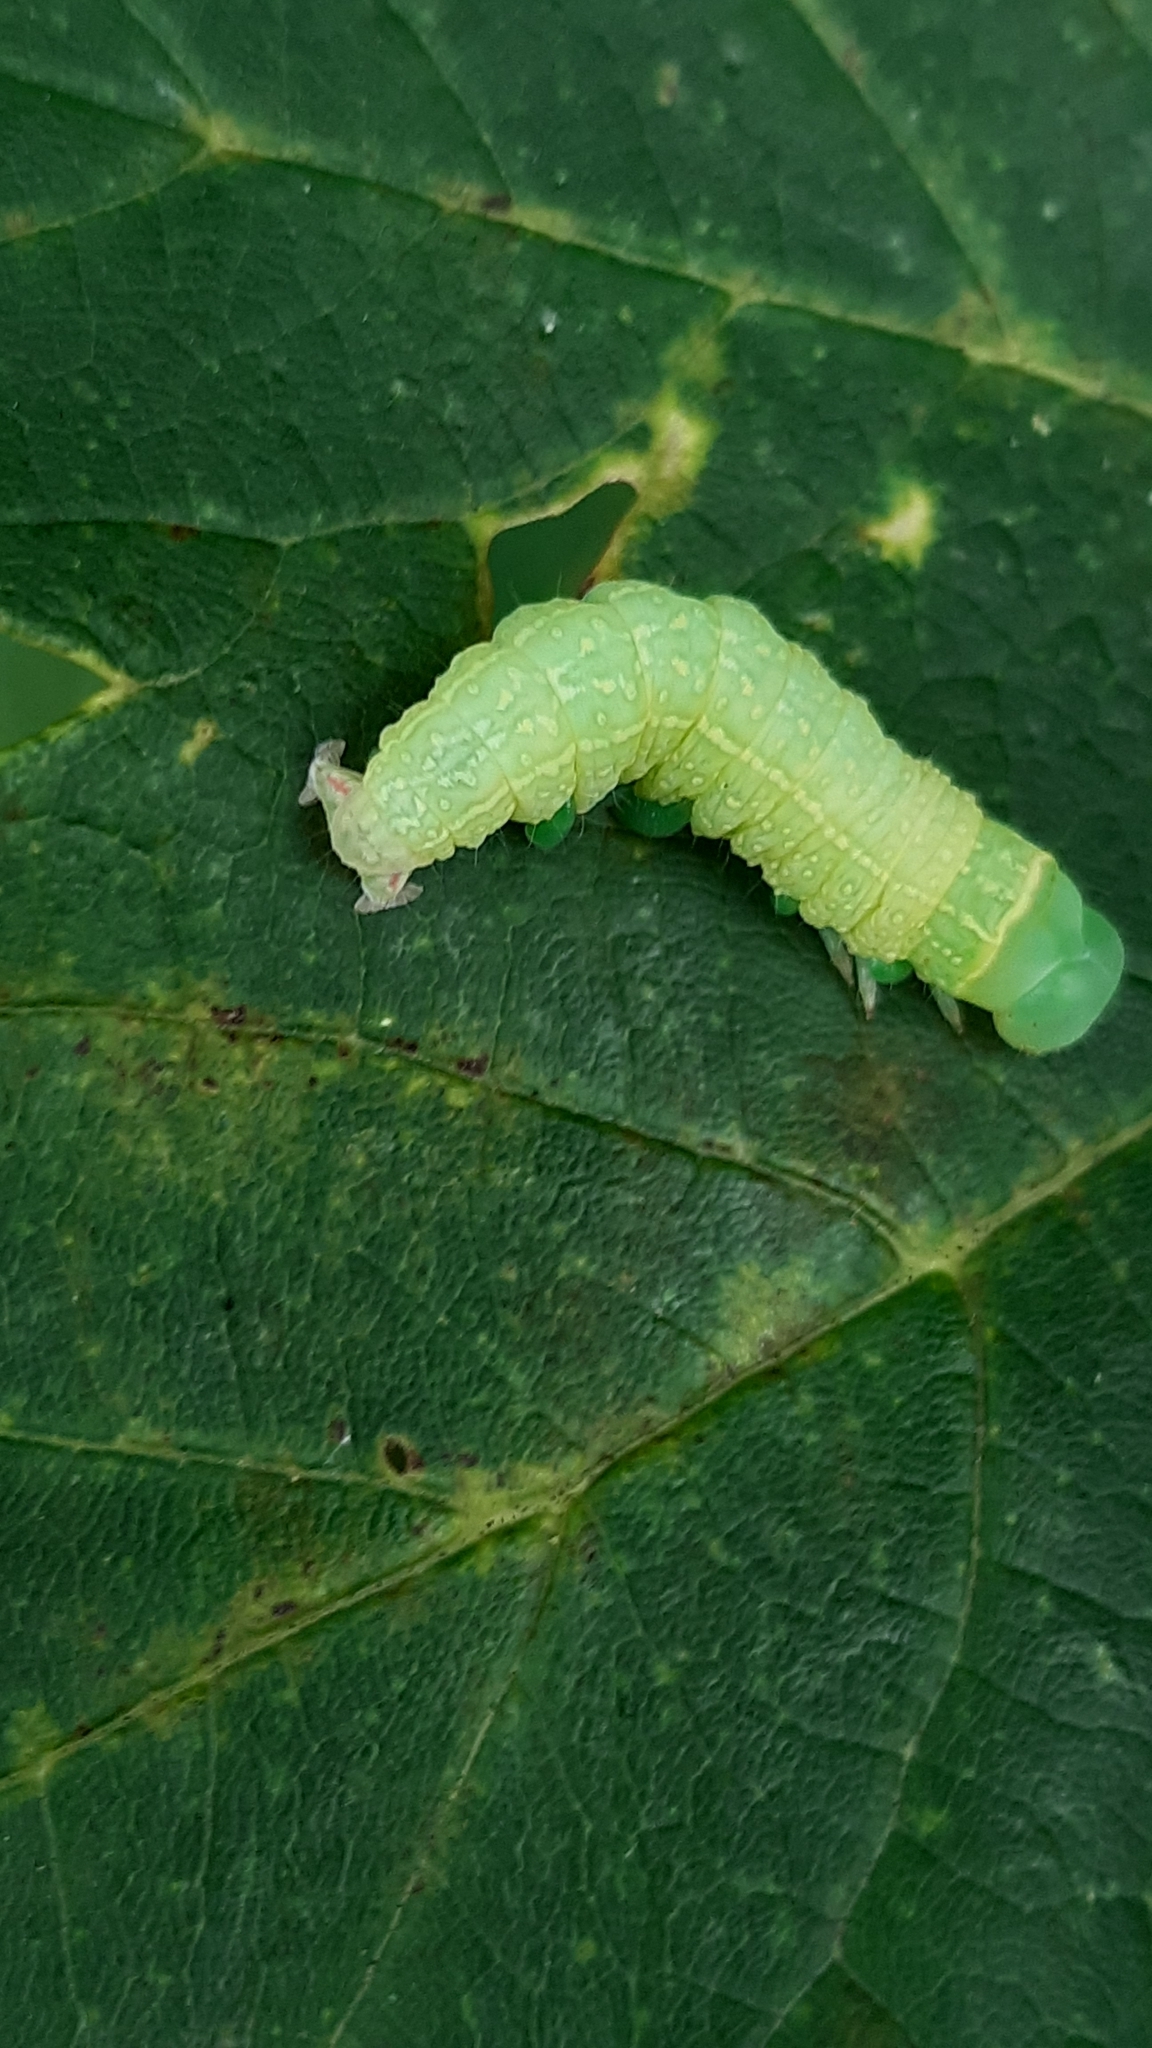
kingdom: Animalia
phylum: Arthropoda
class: Insecta
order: Lepidoptera
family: Nolidae
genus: Pseudoips
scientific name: Pseudoips prasinana
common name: Green silver-lines
